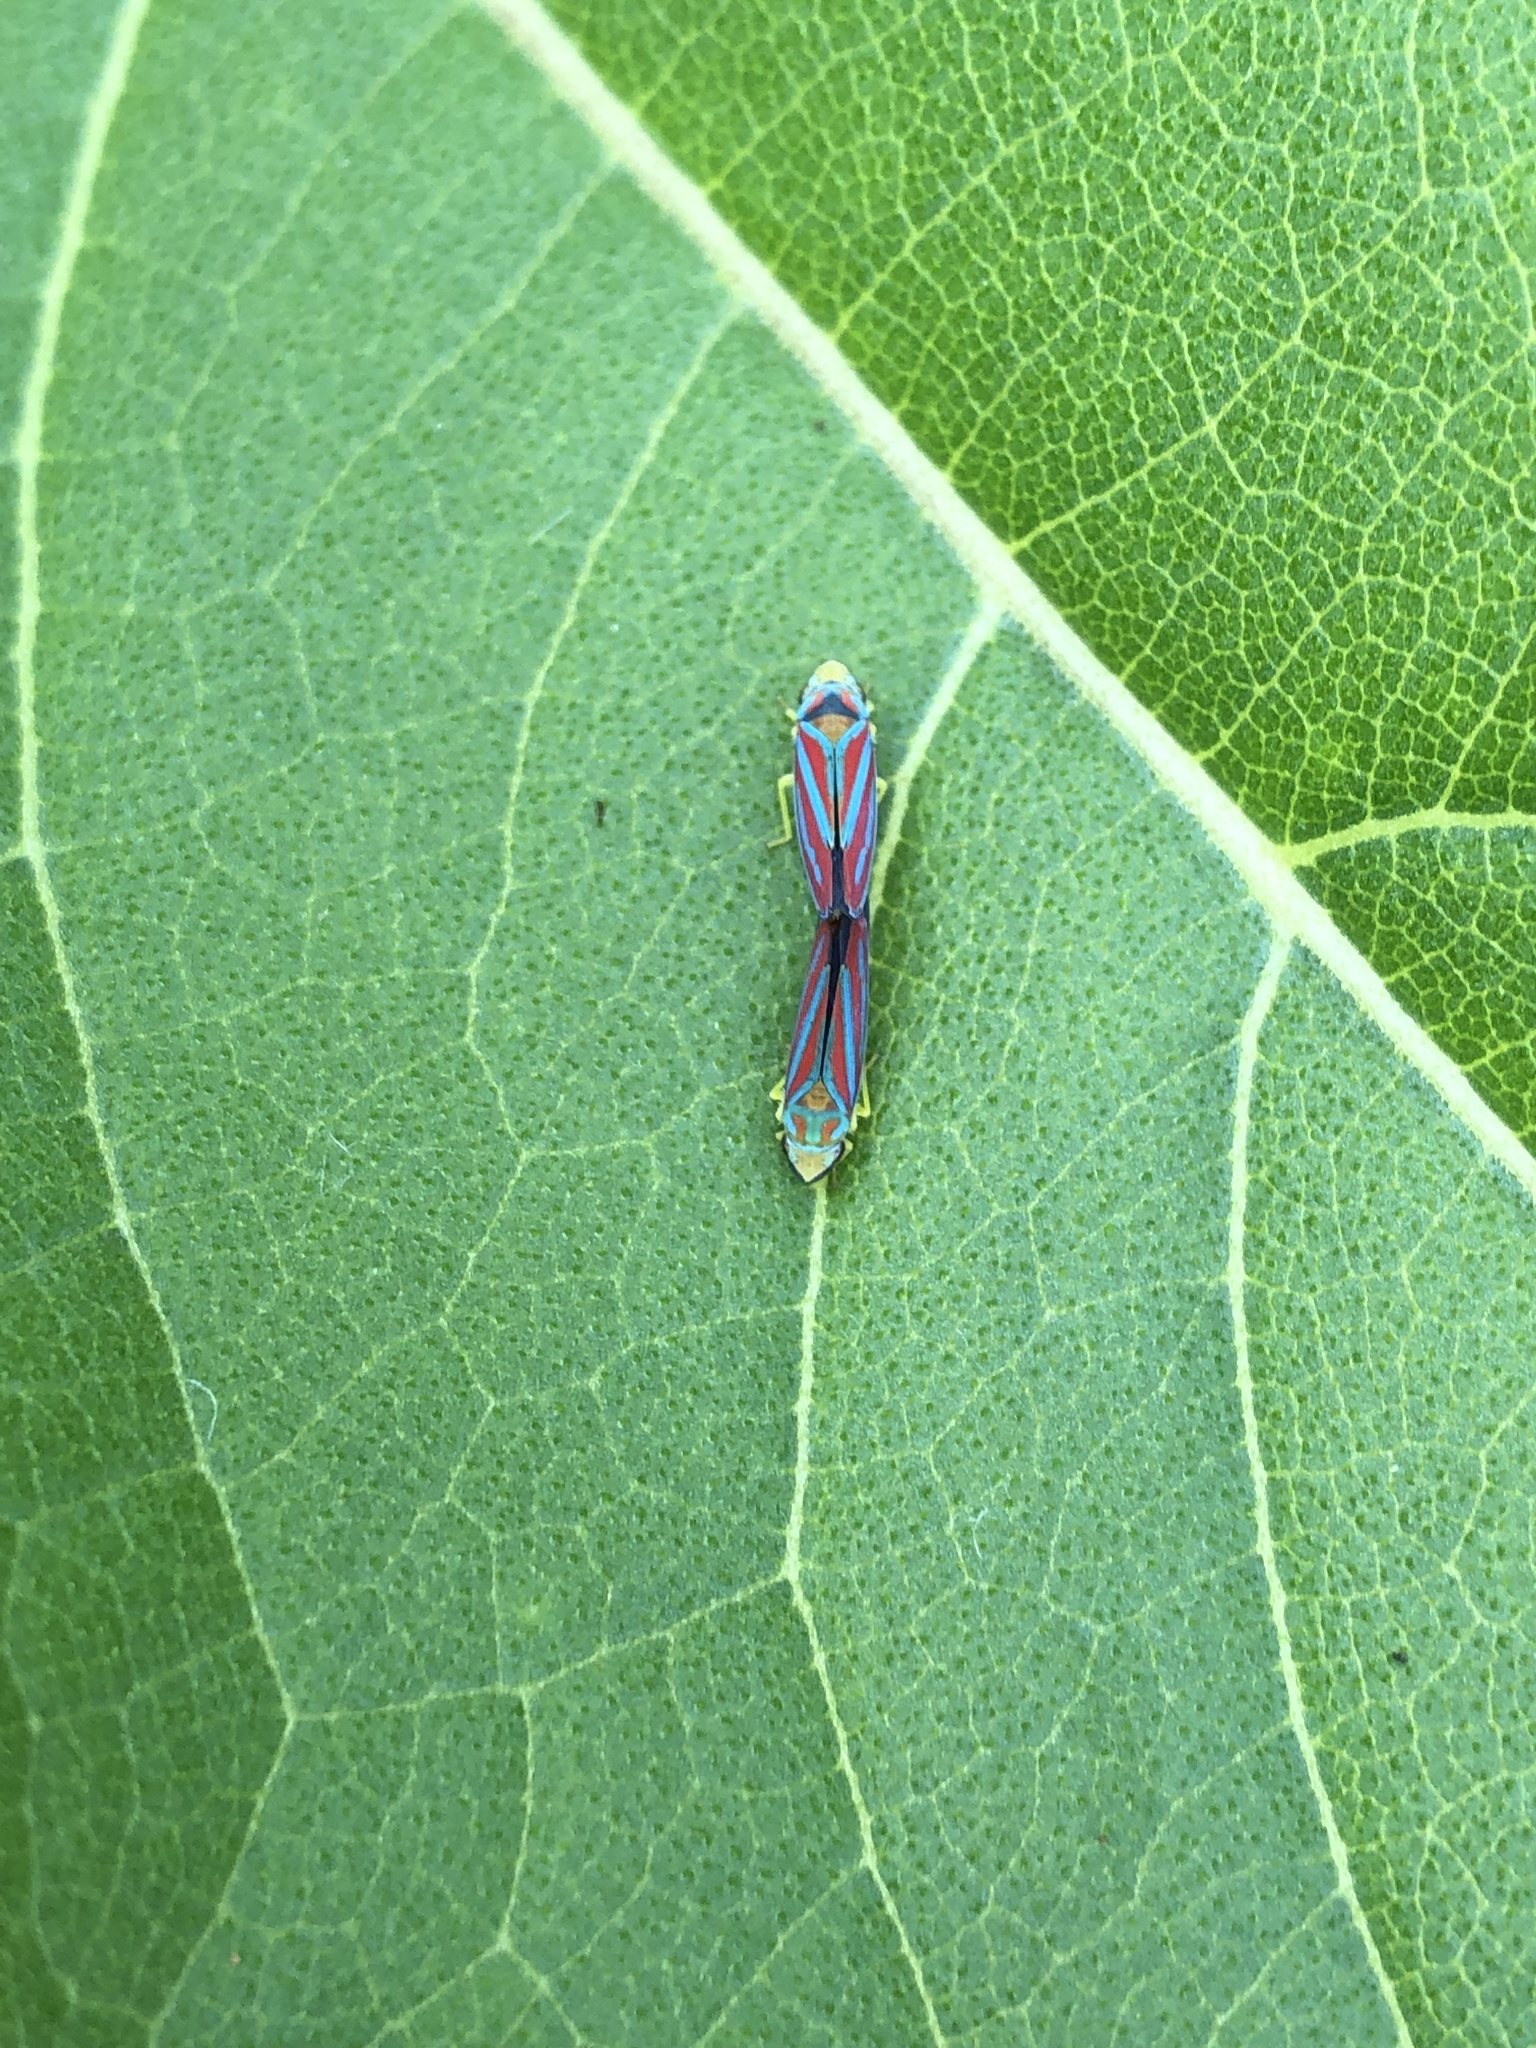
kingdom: Animalia
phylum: Arthropoda
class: Insecta
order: Hemiptera
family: Cicadellidae
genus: Graphocephala
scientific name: Graphocephala coccinea
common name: Candy-striped leafhopper
